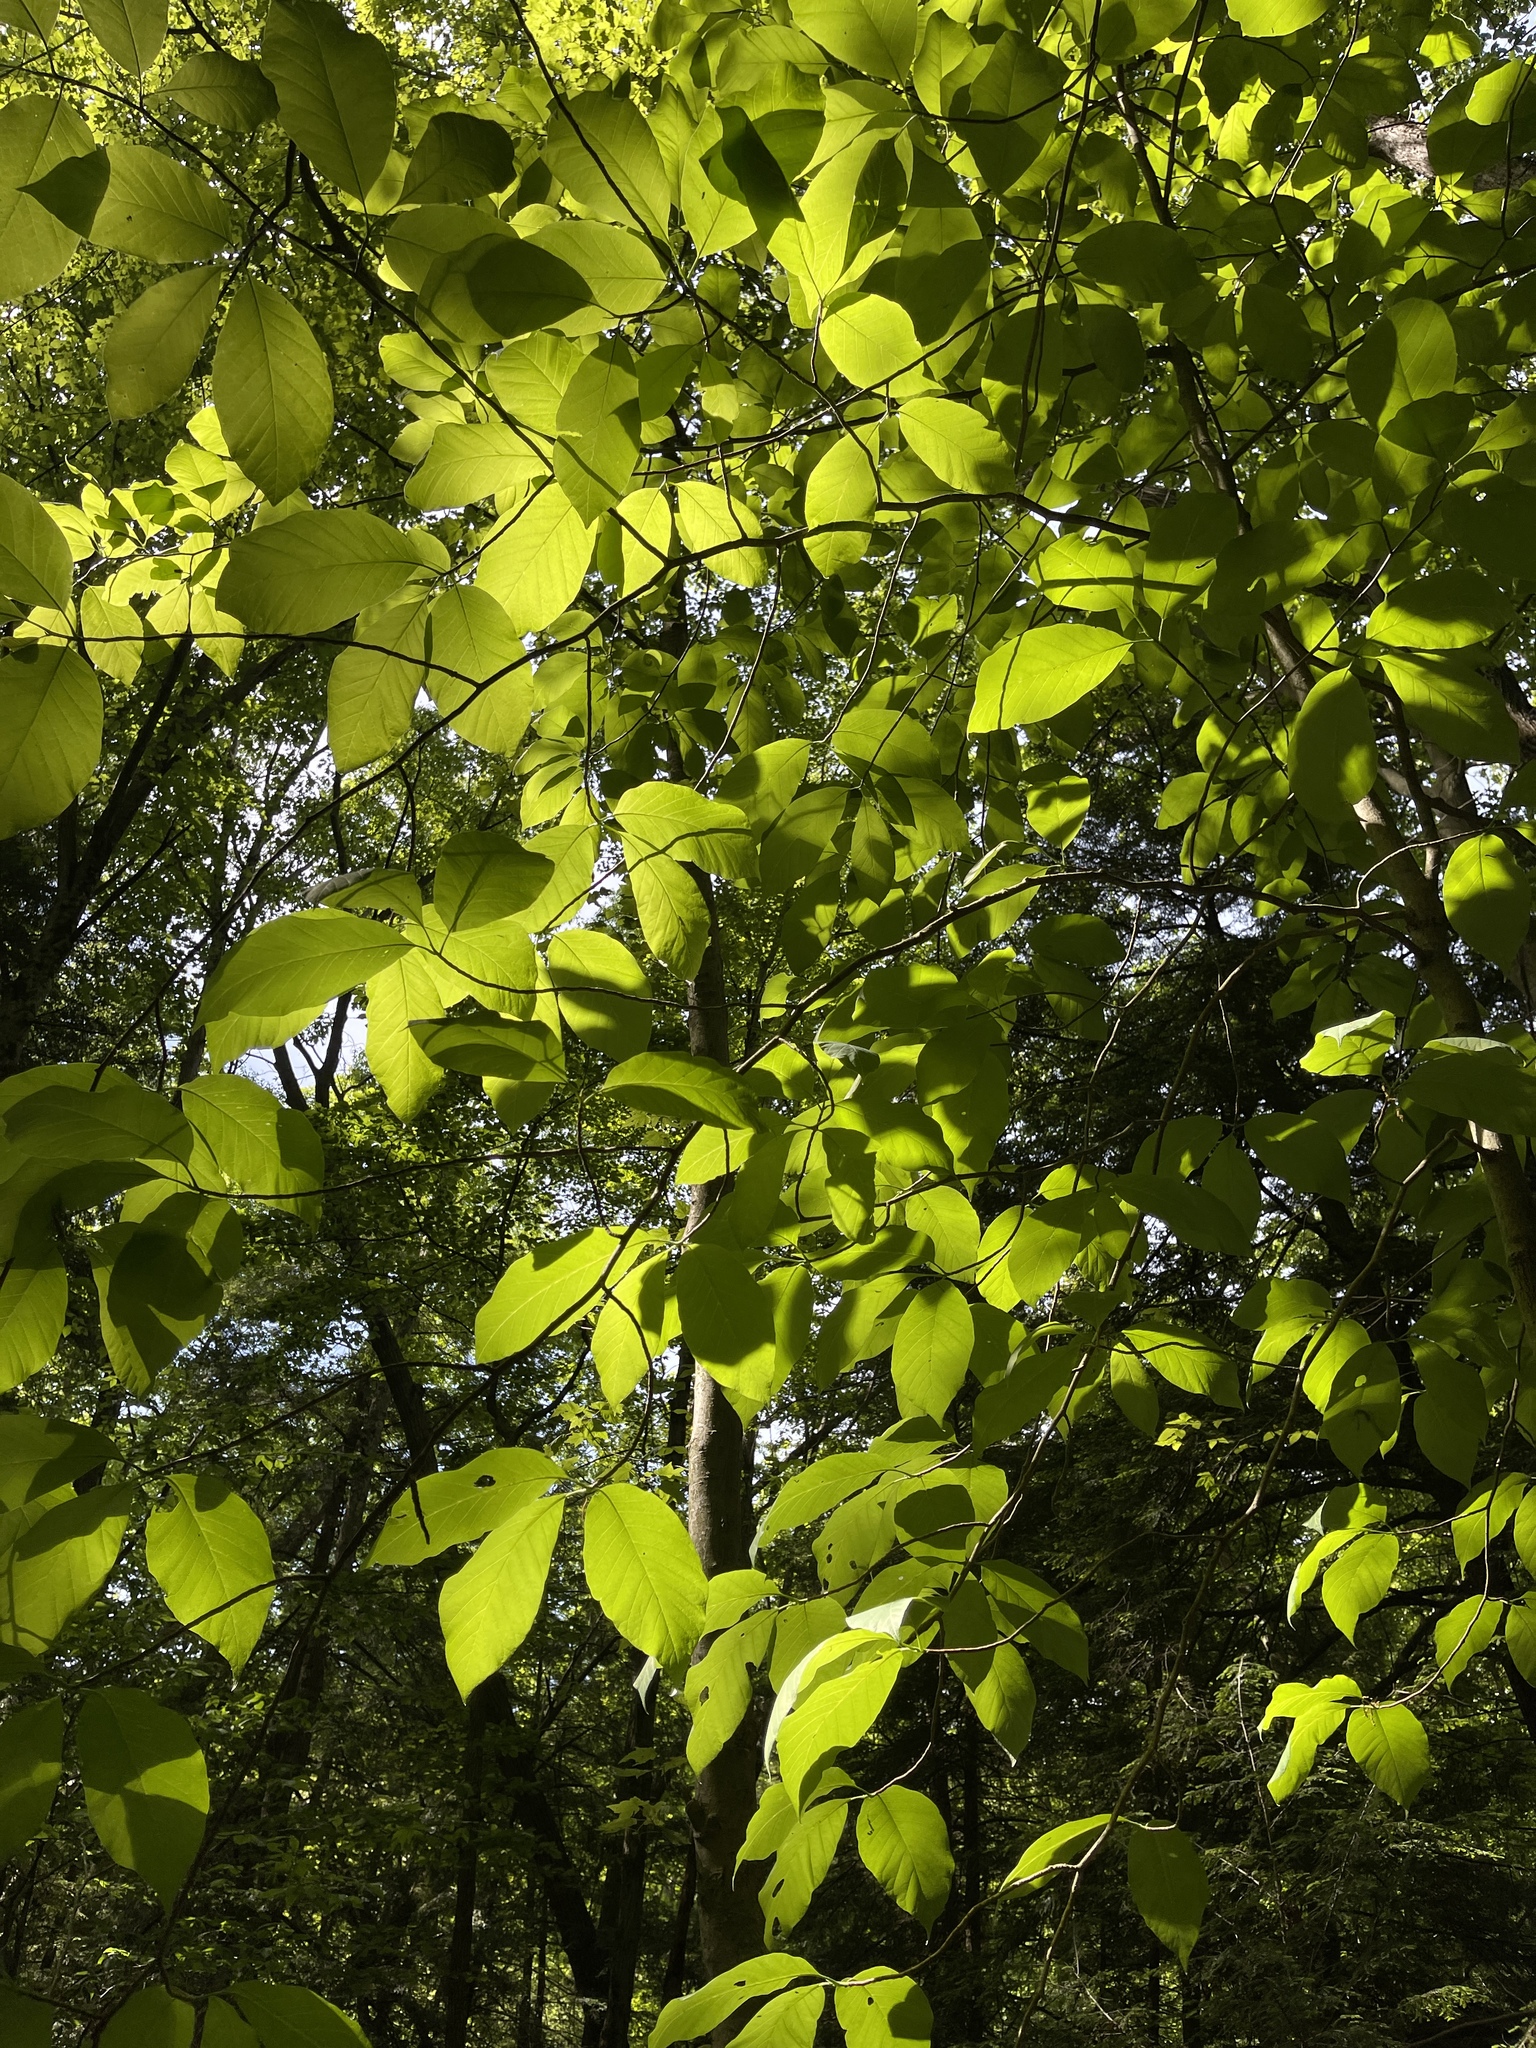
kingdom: Plantae
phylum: Tracheophyta
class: Magnoliopsida
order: Magnoliales
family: Magnoliaceae
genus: Magnolia
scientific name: Magnolia acuminata
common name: Cucumber magnolia
